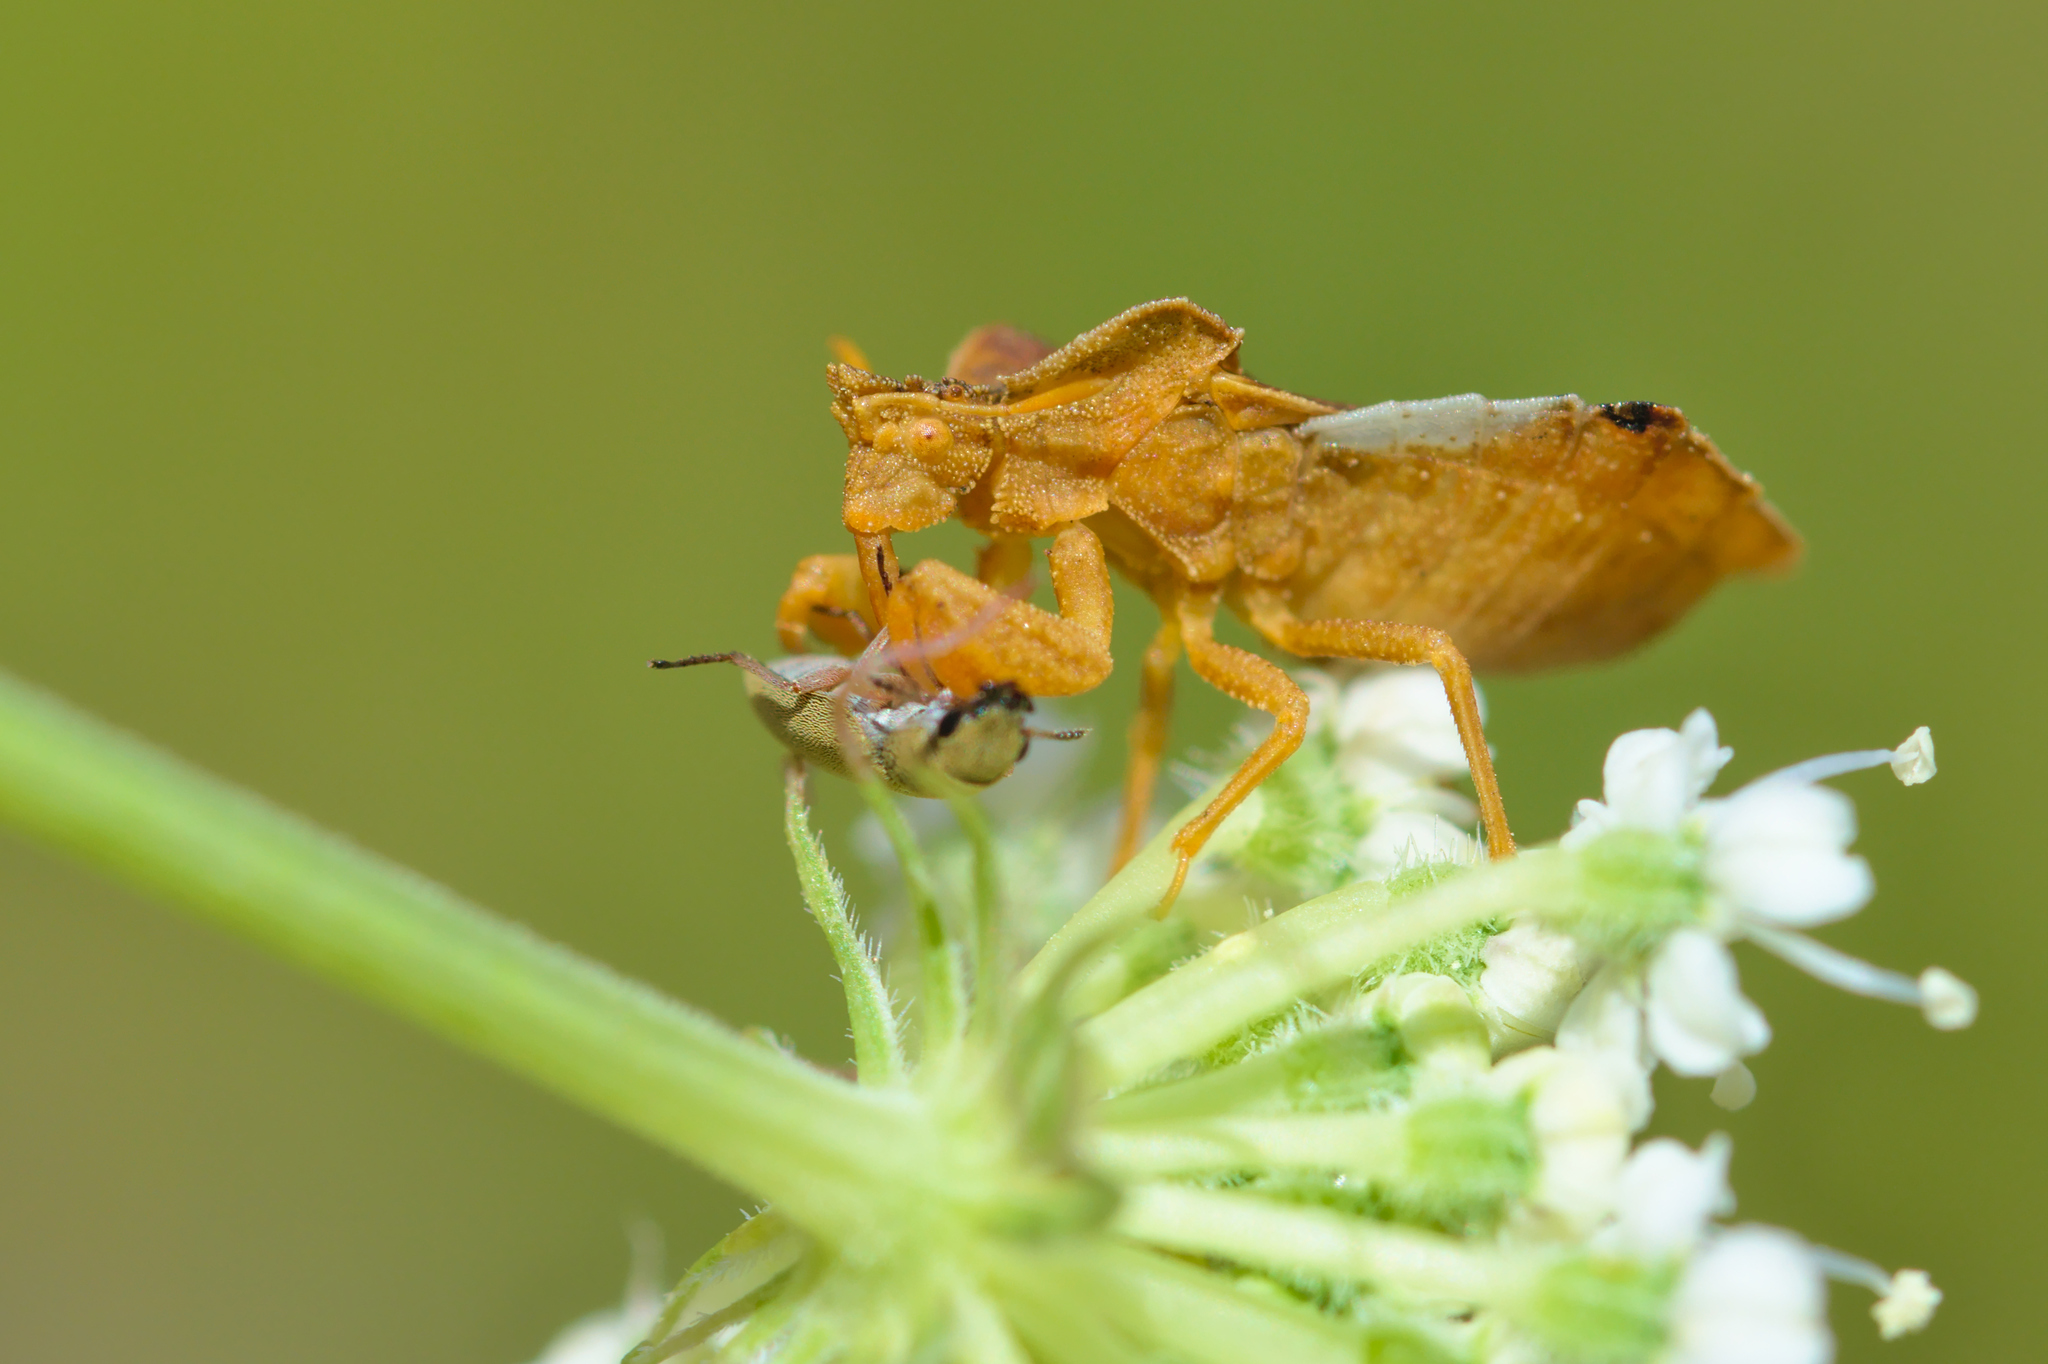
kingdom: Animalia
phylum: Arthropoda
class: Insecta
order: Hemiptera
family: Reduviidae
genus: Phymata
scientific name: Phymata crassipes
